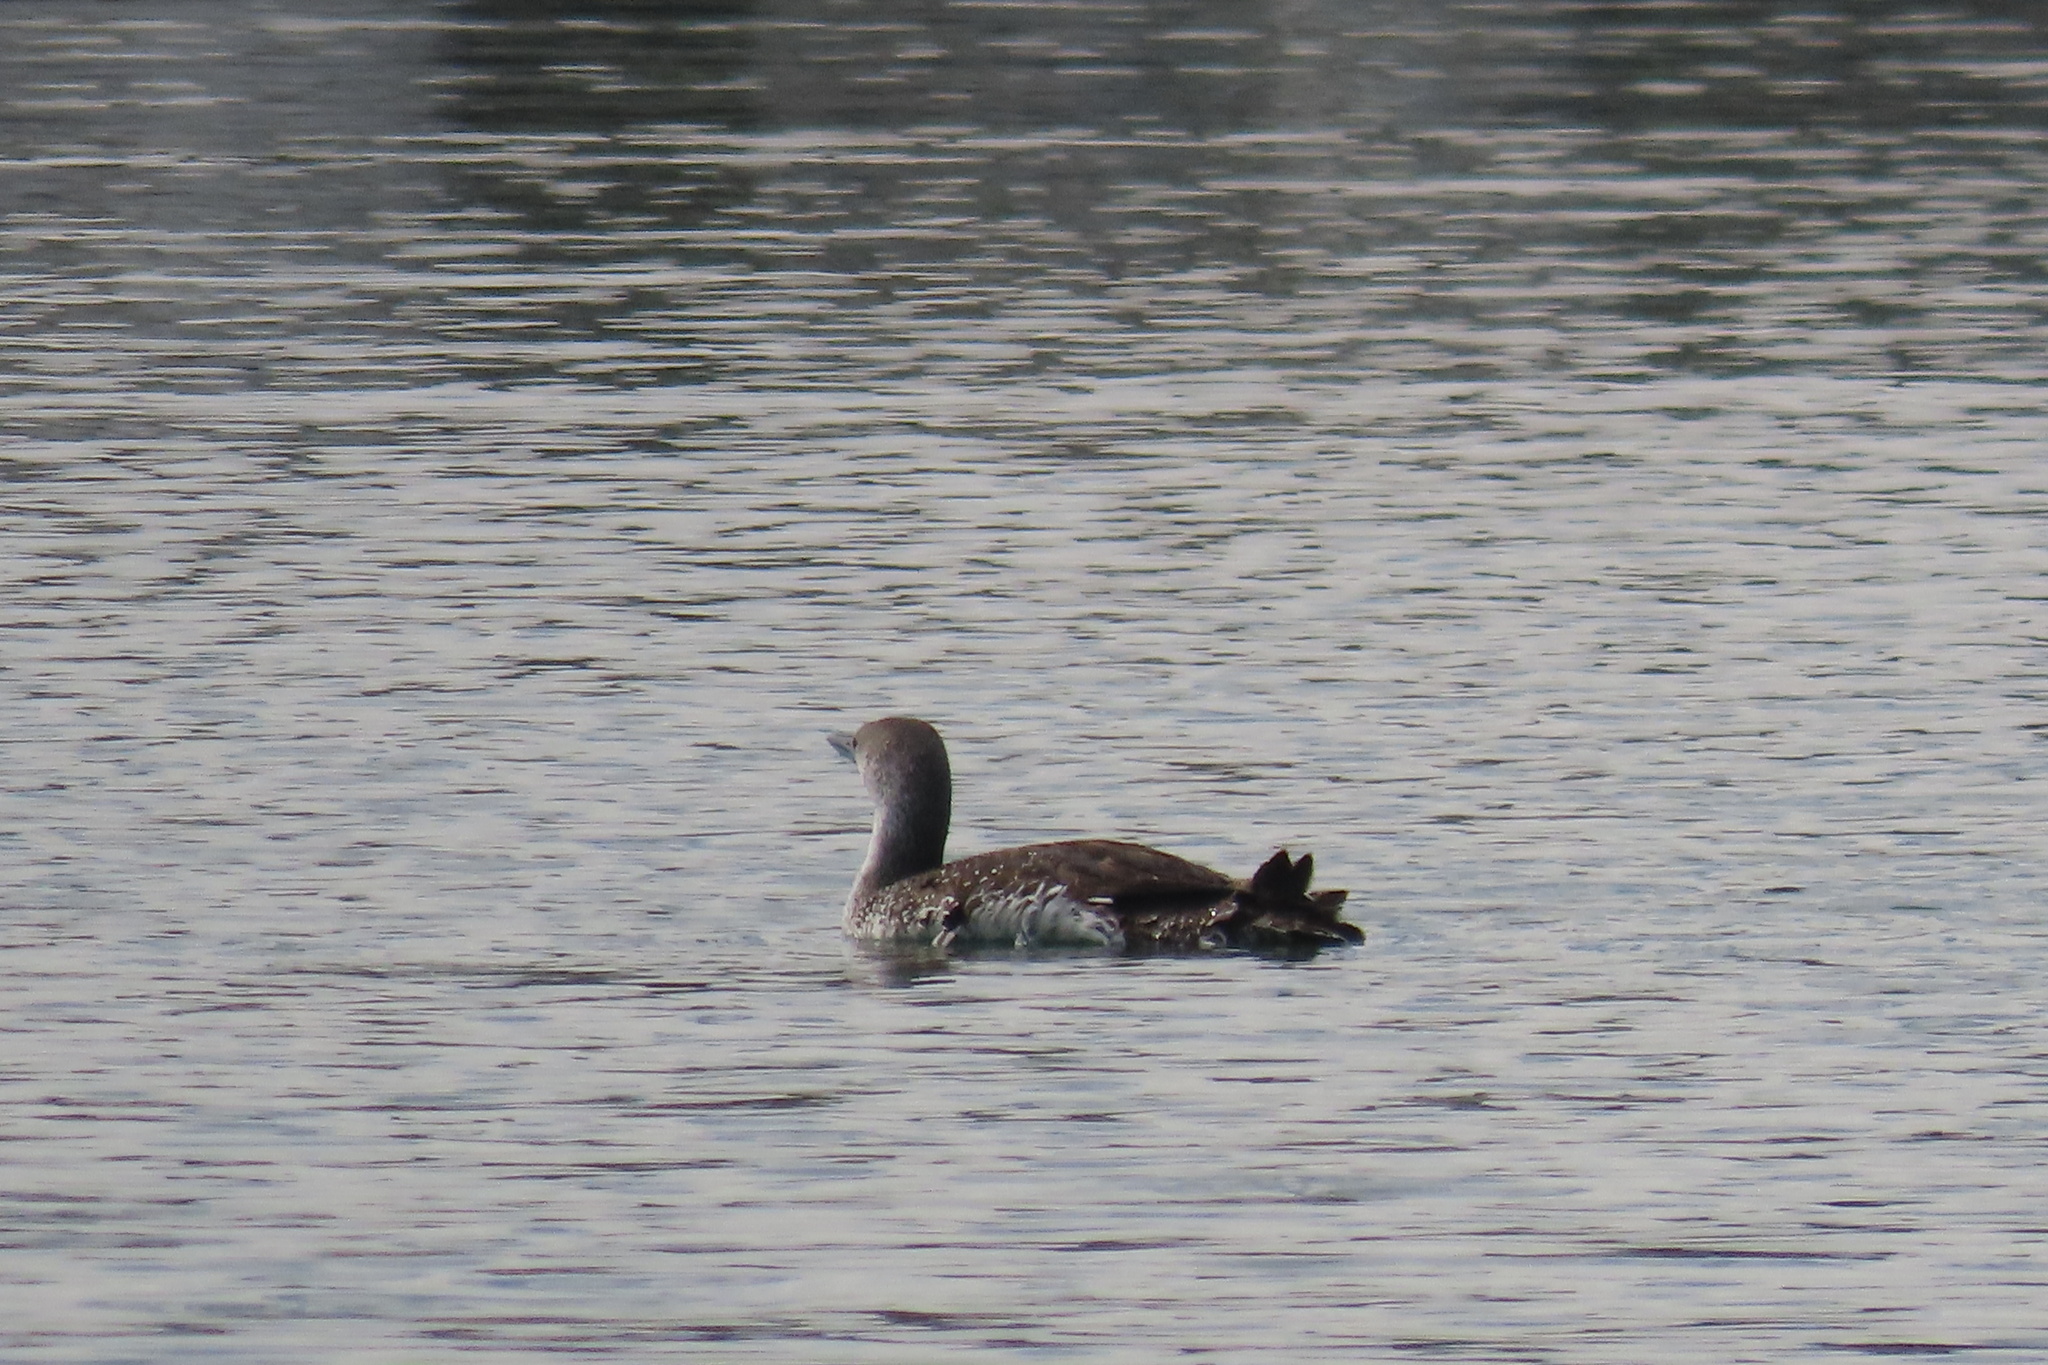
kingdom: Animalia
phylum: Chordata
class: Aves
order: Gaviiformes
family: Gaviidae
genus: Gavia
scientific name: Gavia stellata
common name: Red-throated loon
